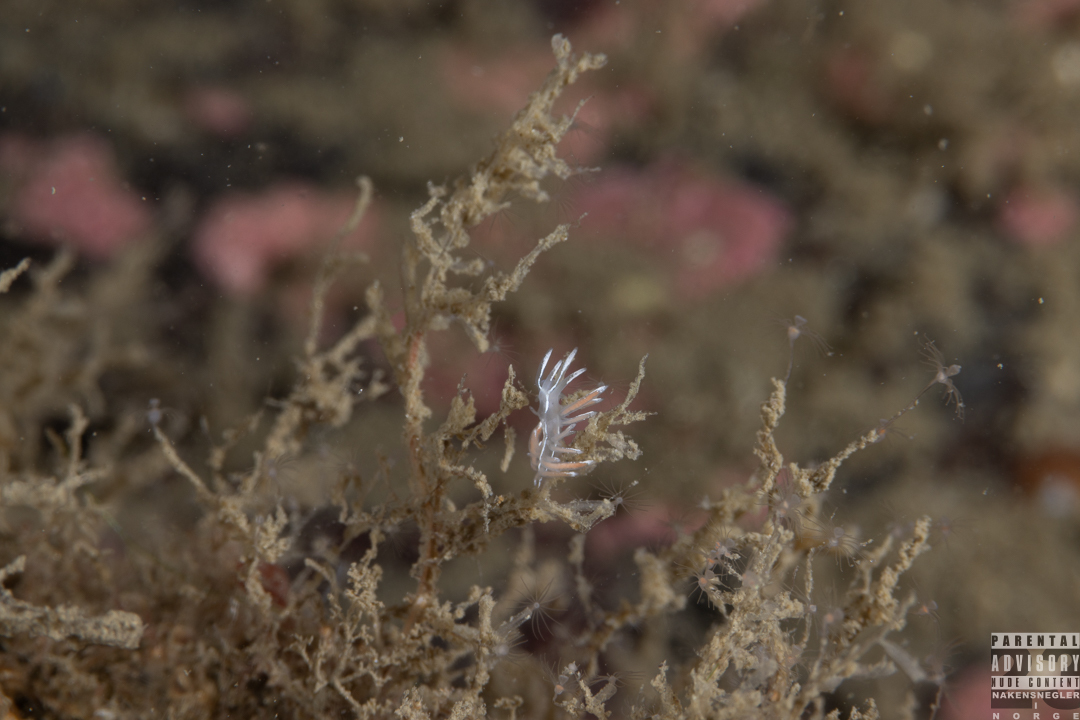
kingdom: Animalia
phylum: Mollusca
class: Gastropoda
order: Nudibranchia
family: Coryphellidae
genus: Coryphella
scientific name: Coryphella lineata
